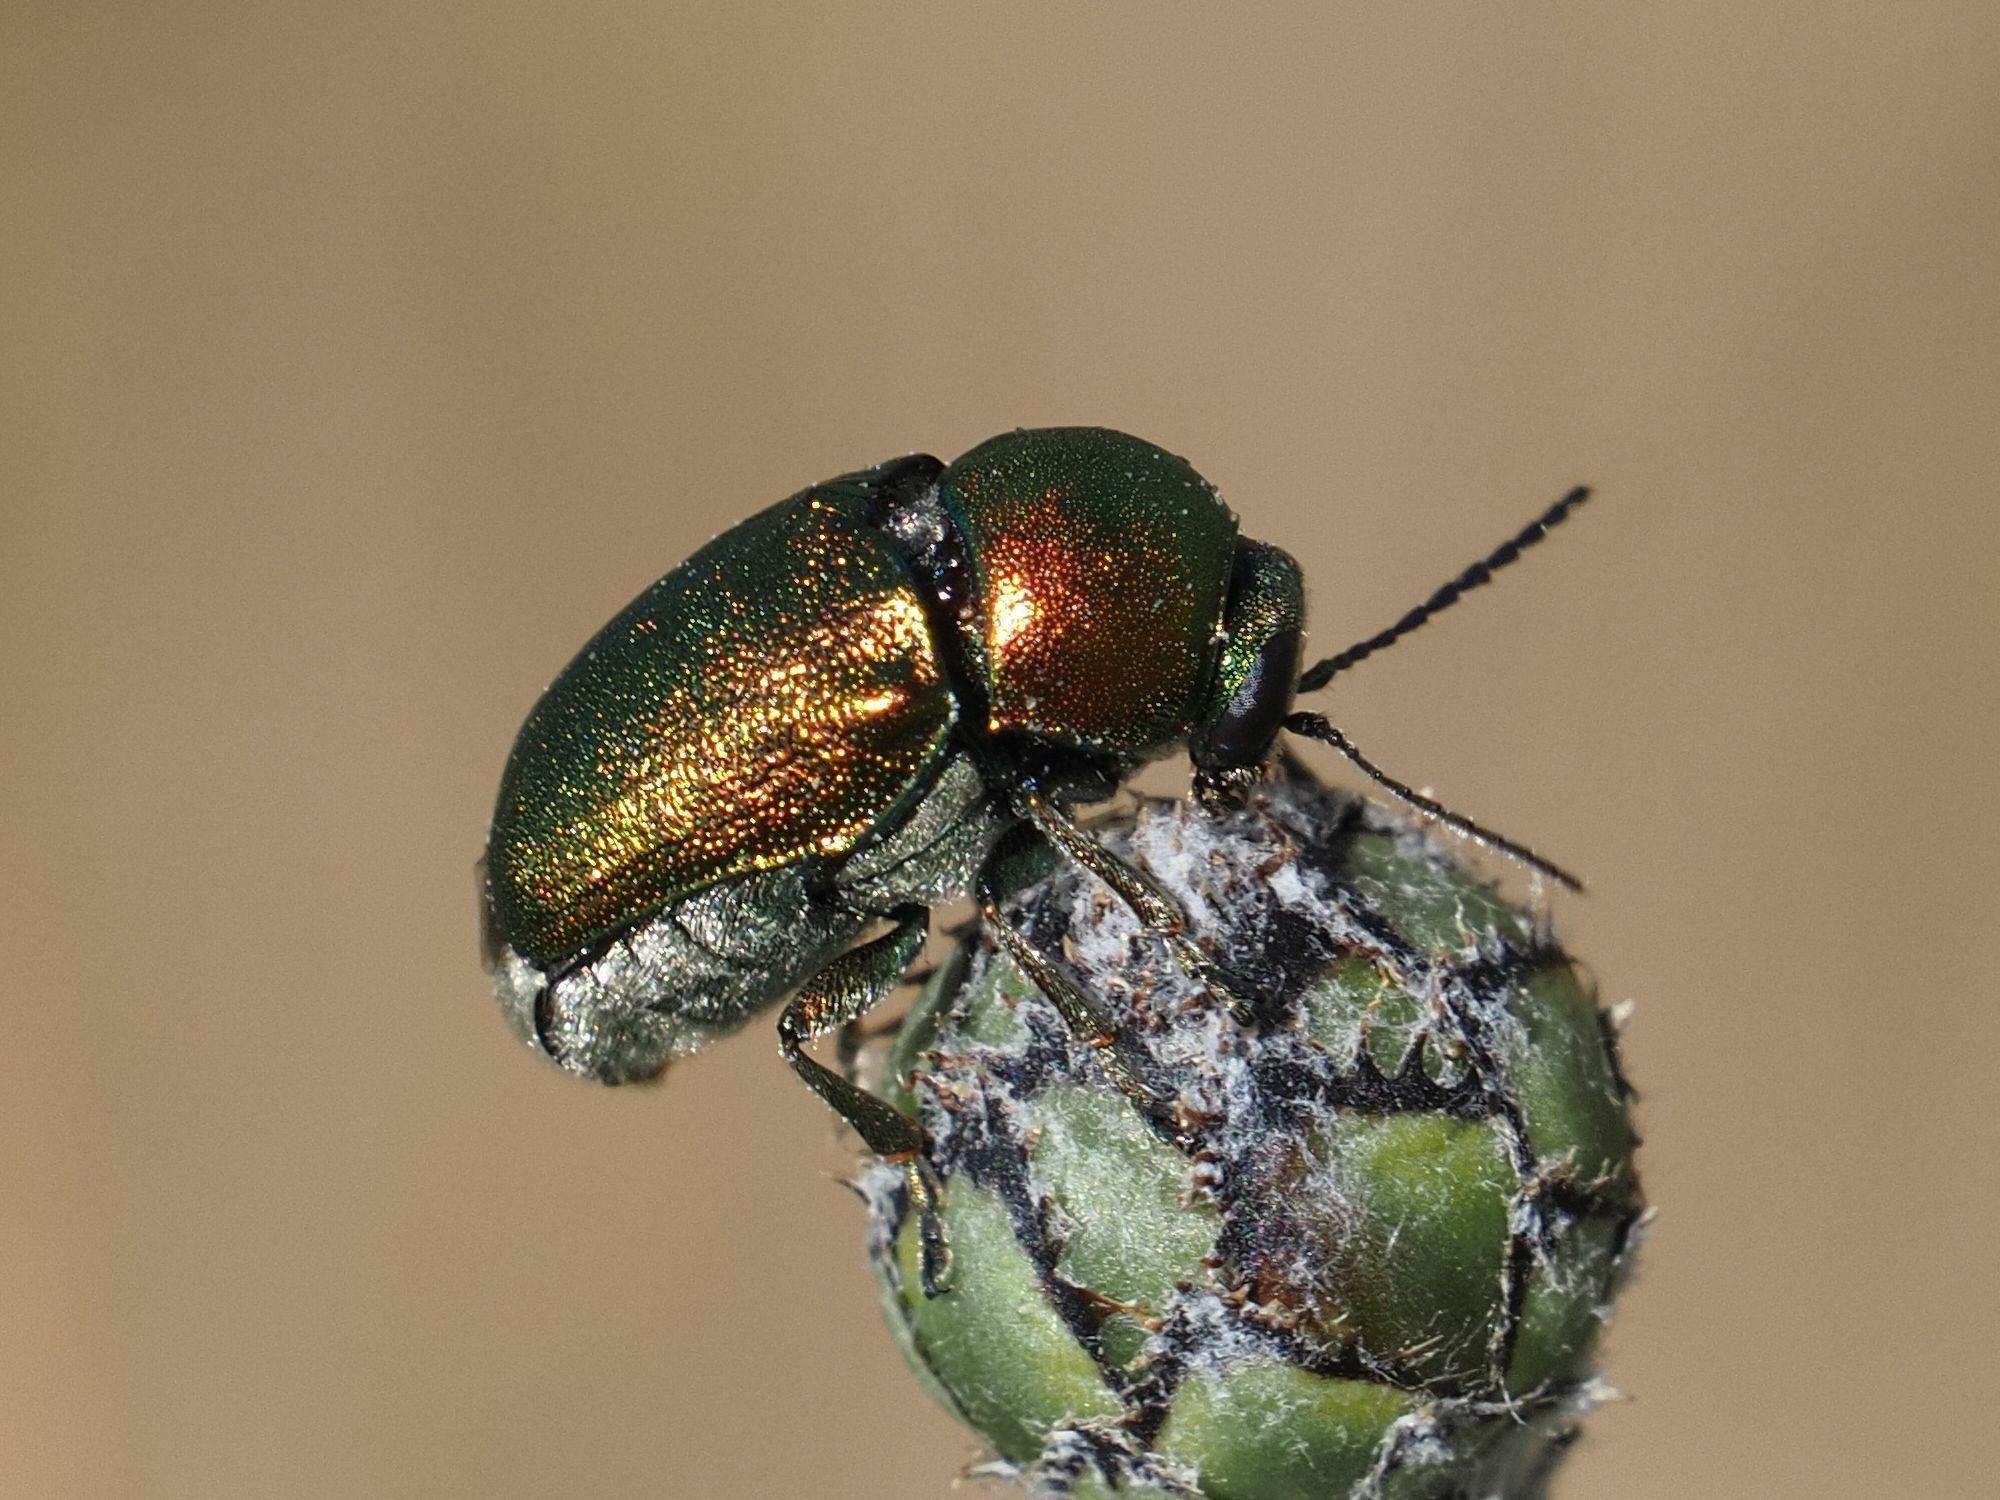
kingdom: Animalia
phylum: Arthropoda
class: Insecta
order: Coleoptera
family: Chrysomelidae
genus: Cryptocephalus
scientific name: Cryptocephalus sericeus
